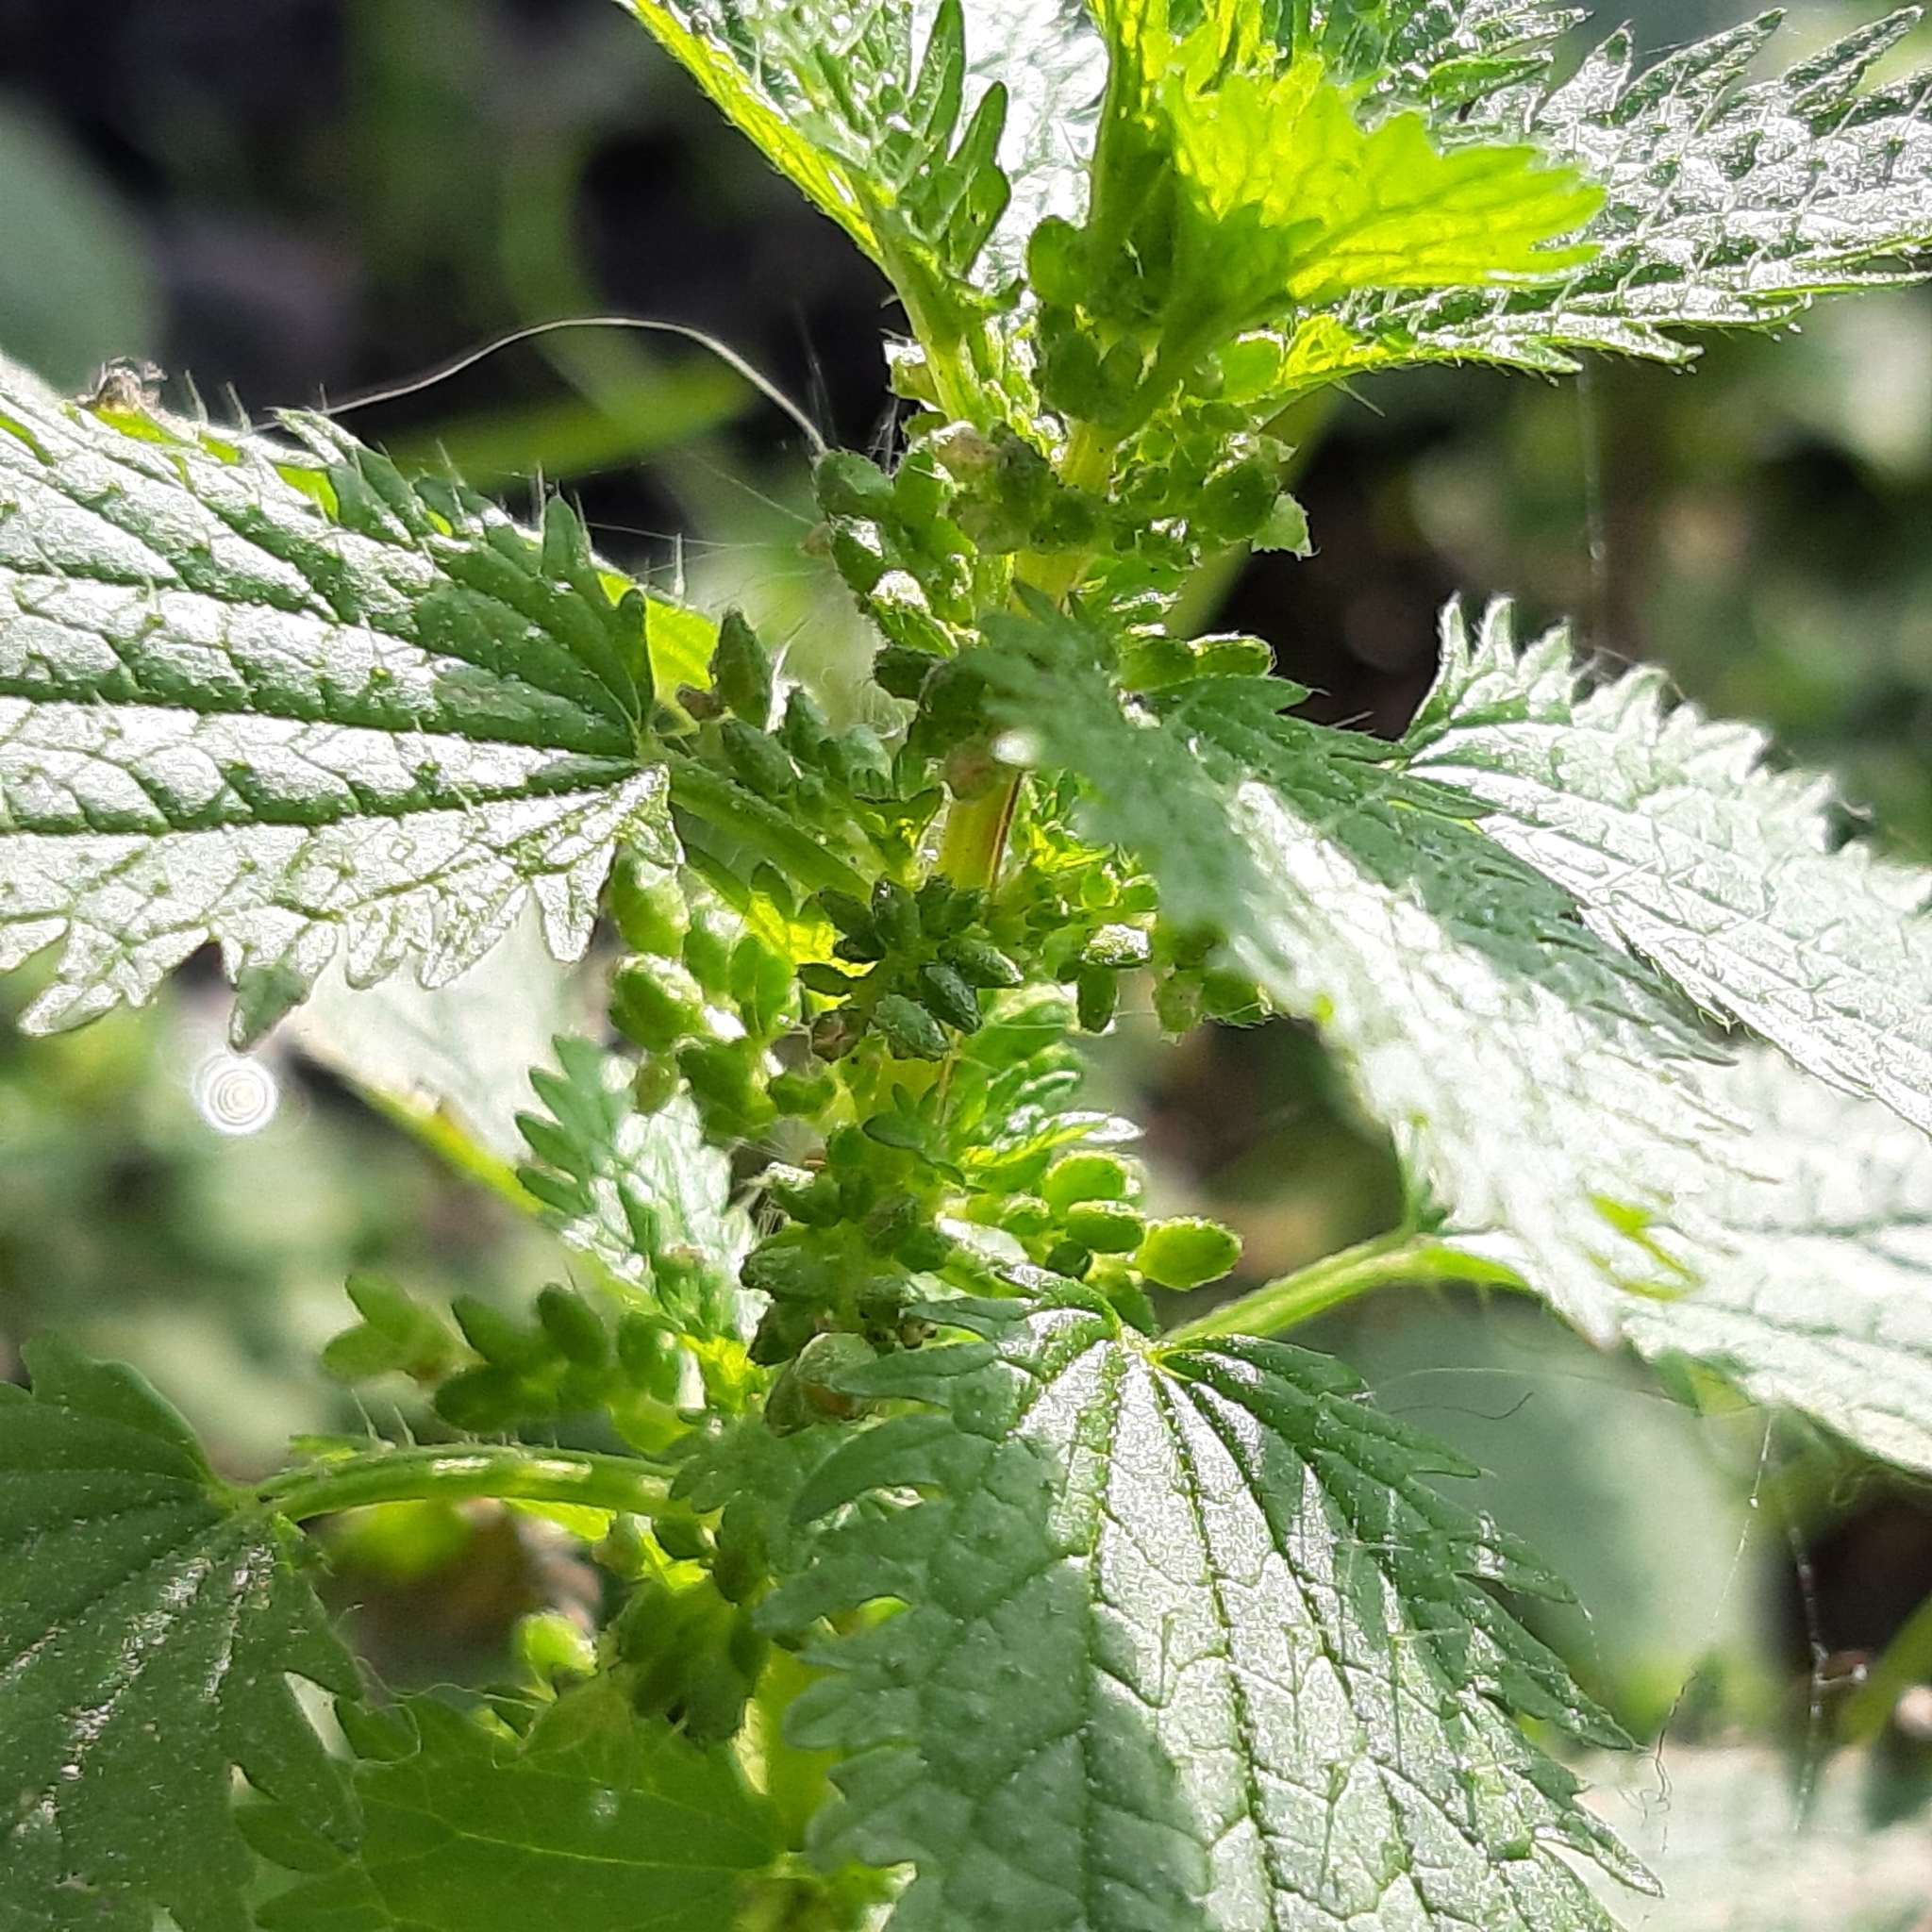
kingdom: Plantae
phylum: Tracheophyta
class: Magnoliopsida
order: Rosales
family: Urticaceae
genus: Urtica
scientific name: Urtica urens
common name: Dwarf nettle
